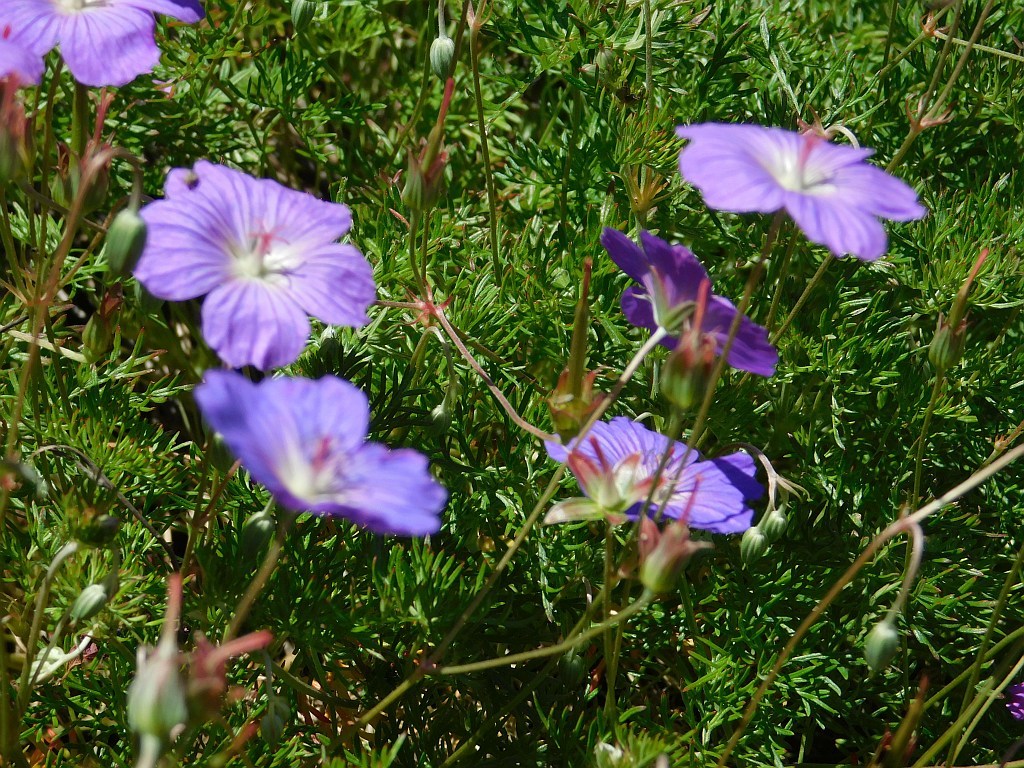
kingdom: Plantae
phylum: Tracheophyta
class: Magnoliopsida
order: Geraniales
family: Geraniaceae
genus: Geranium
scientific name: Geranium incanum
